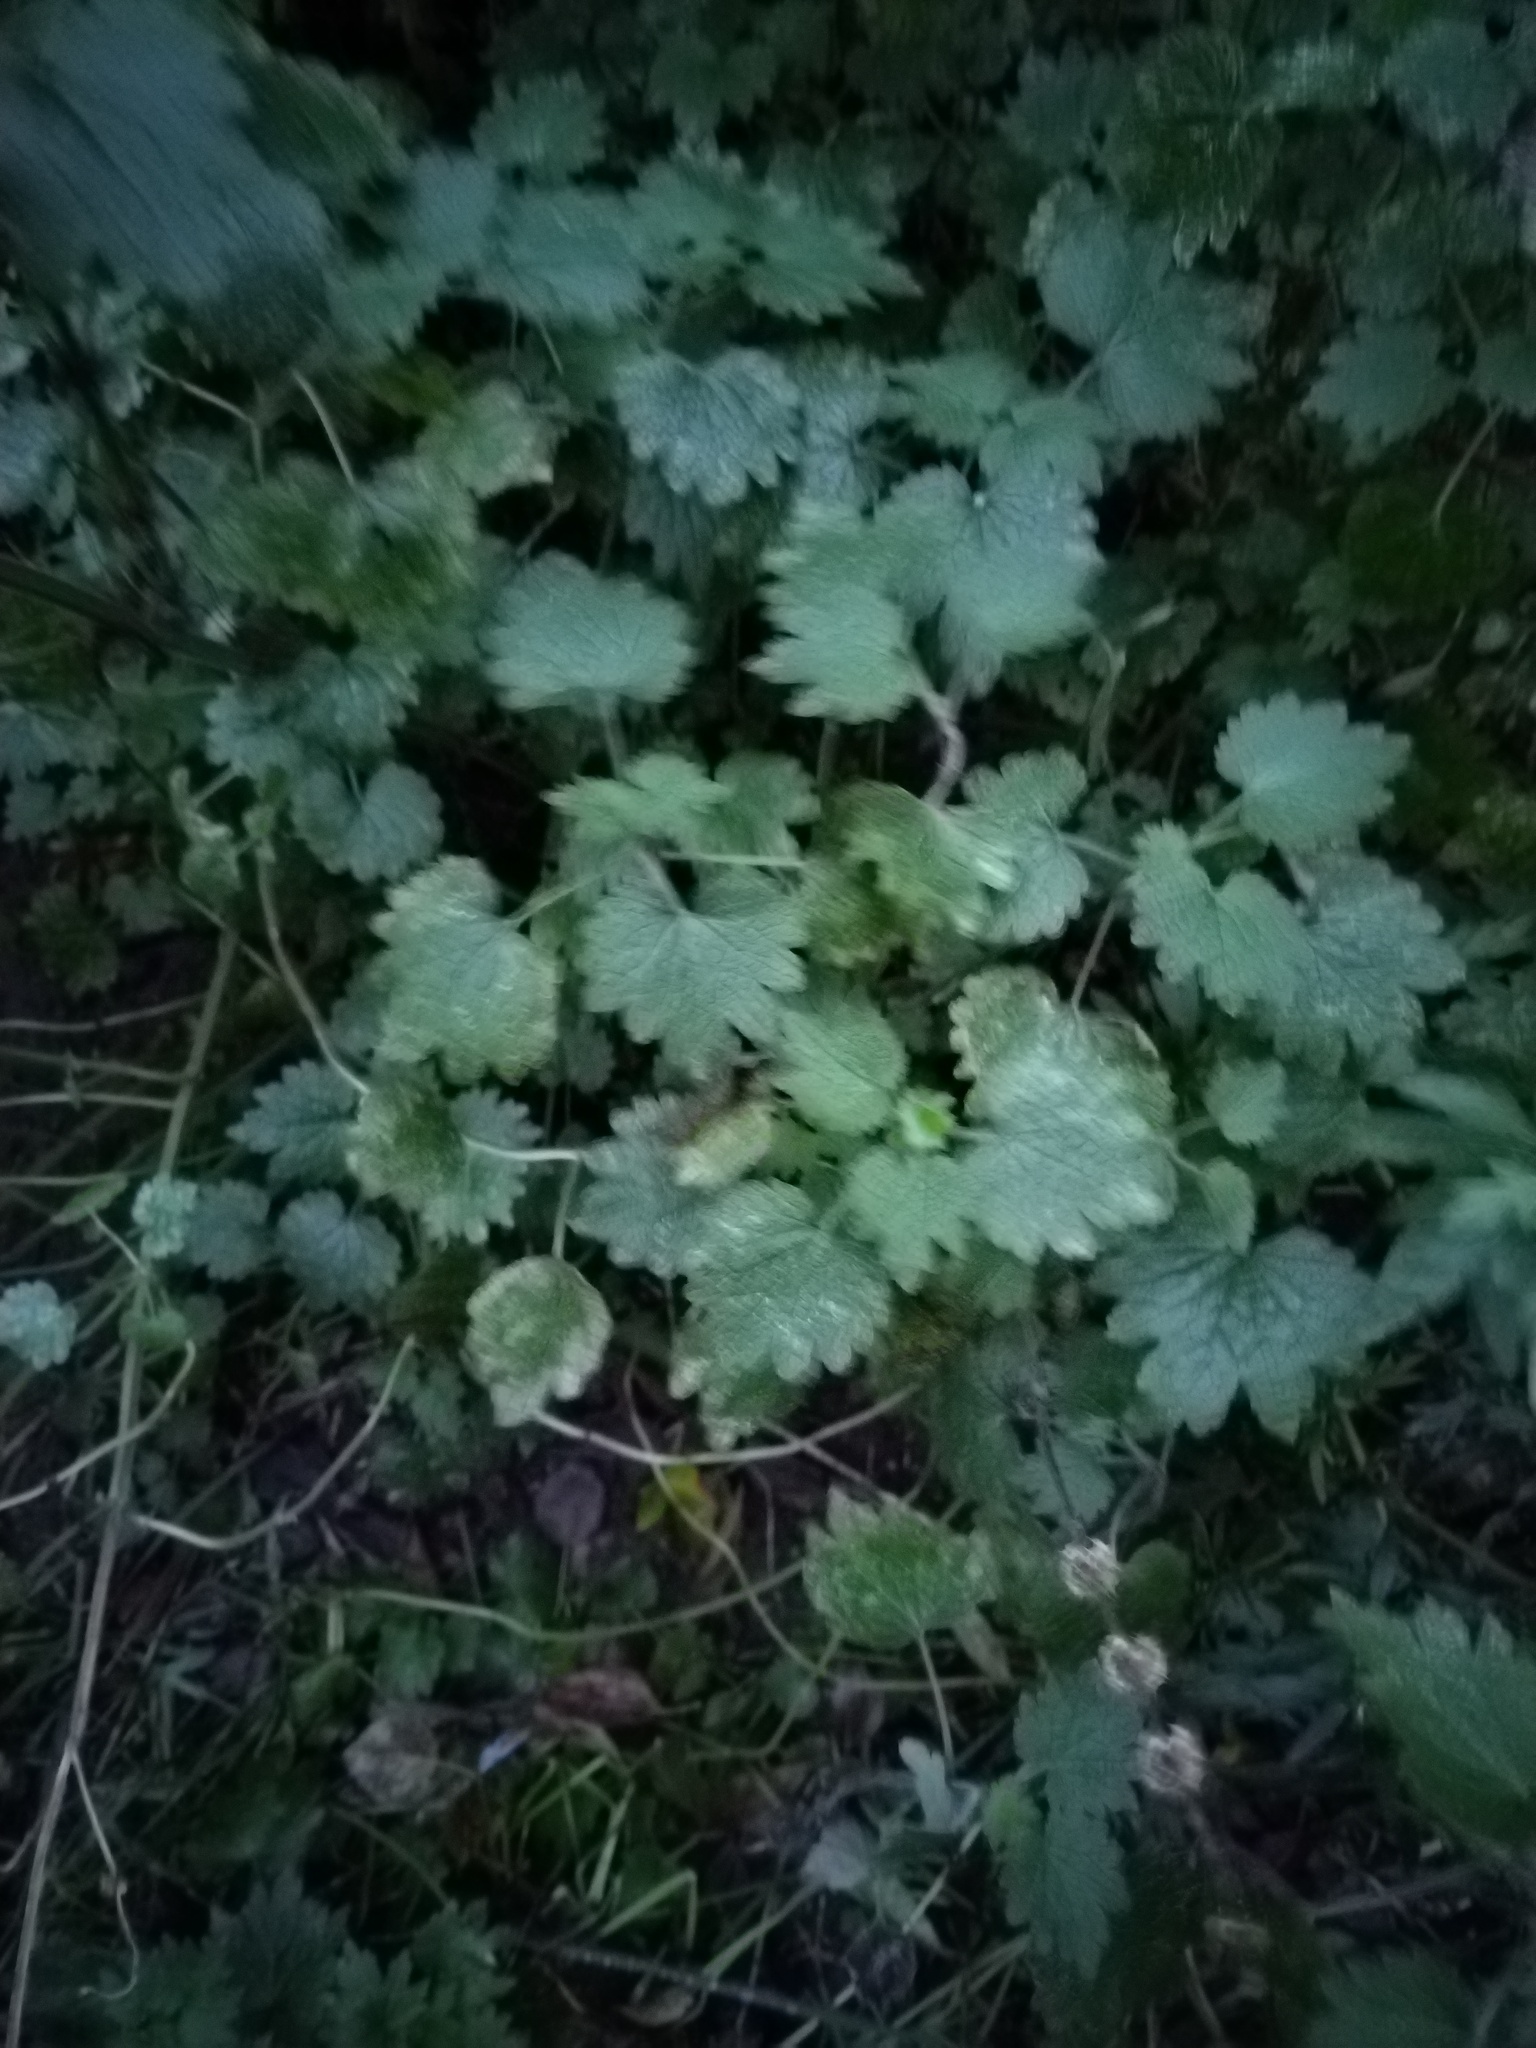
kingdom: Plantae
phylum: Tracheophyta
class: Magnoliopsida
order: Lamiales
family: Lamiaceae
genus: Leonurus
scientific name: Leonurus quinquelobatus
